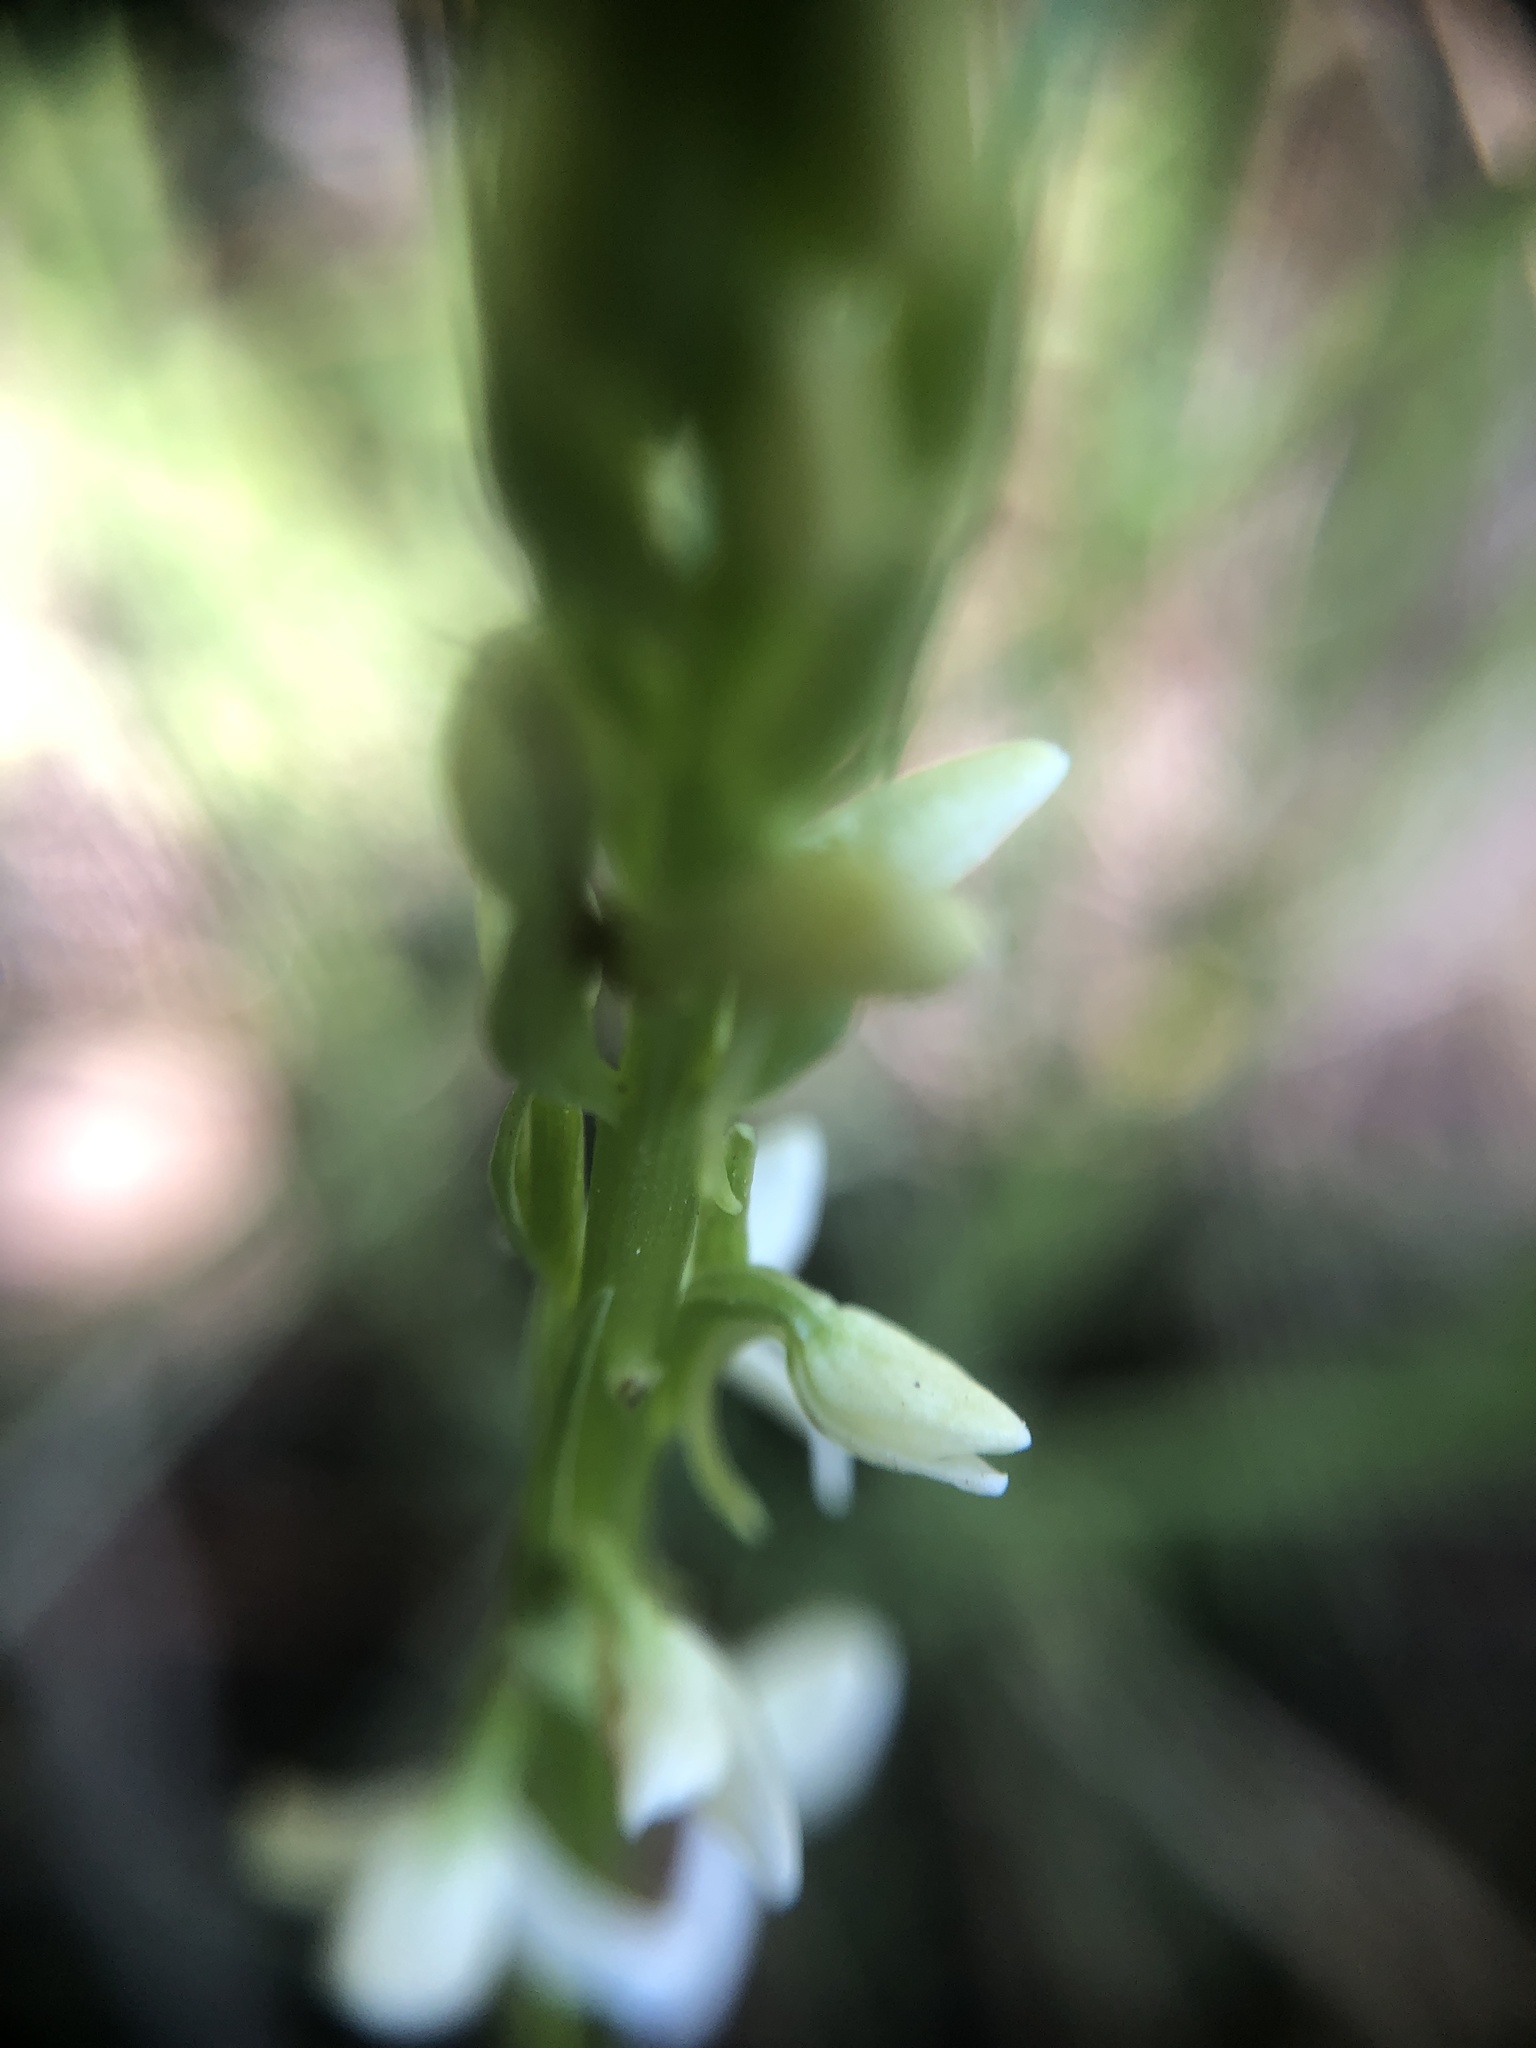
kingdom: Plantae
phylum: Tracheophyta
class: Liliopsida
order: Asparagales
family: Orchidaceae
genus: Platanthera
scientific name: Platanthera dilatata
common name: Bog candles
